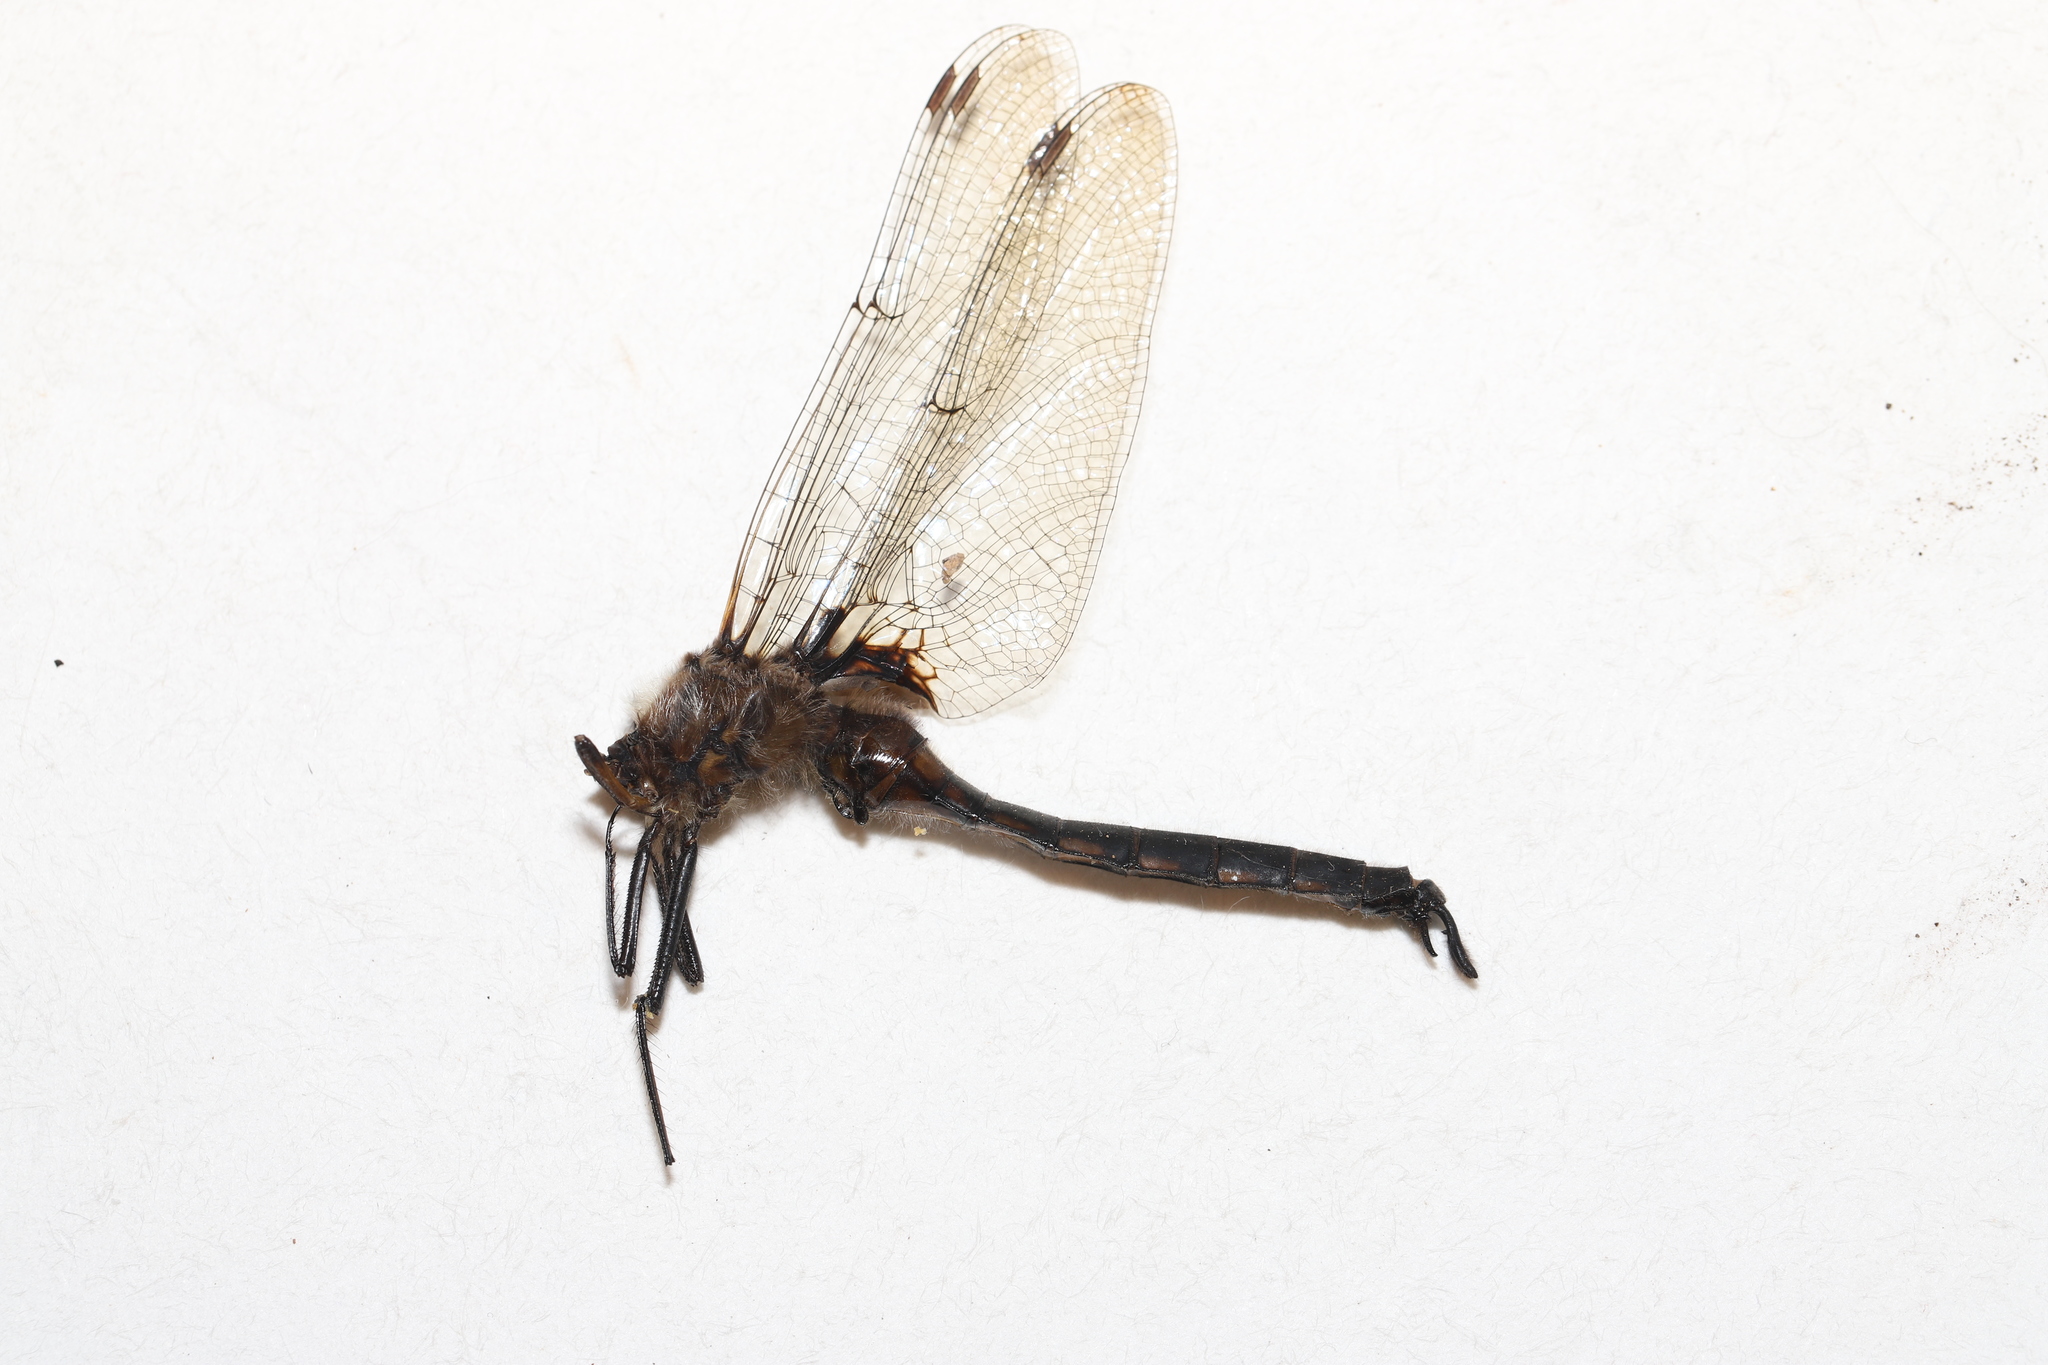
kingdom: Animalia
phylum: Arthropoda
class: Insecta
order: Odonata
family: Corduliidae
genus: Epitheca
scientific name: Epitheca spinigera
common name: Spiny baskettail
